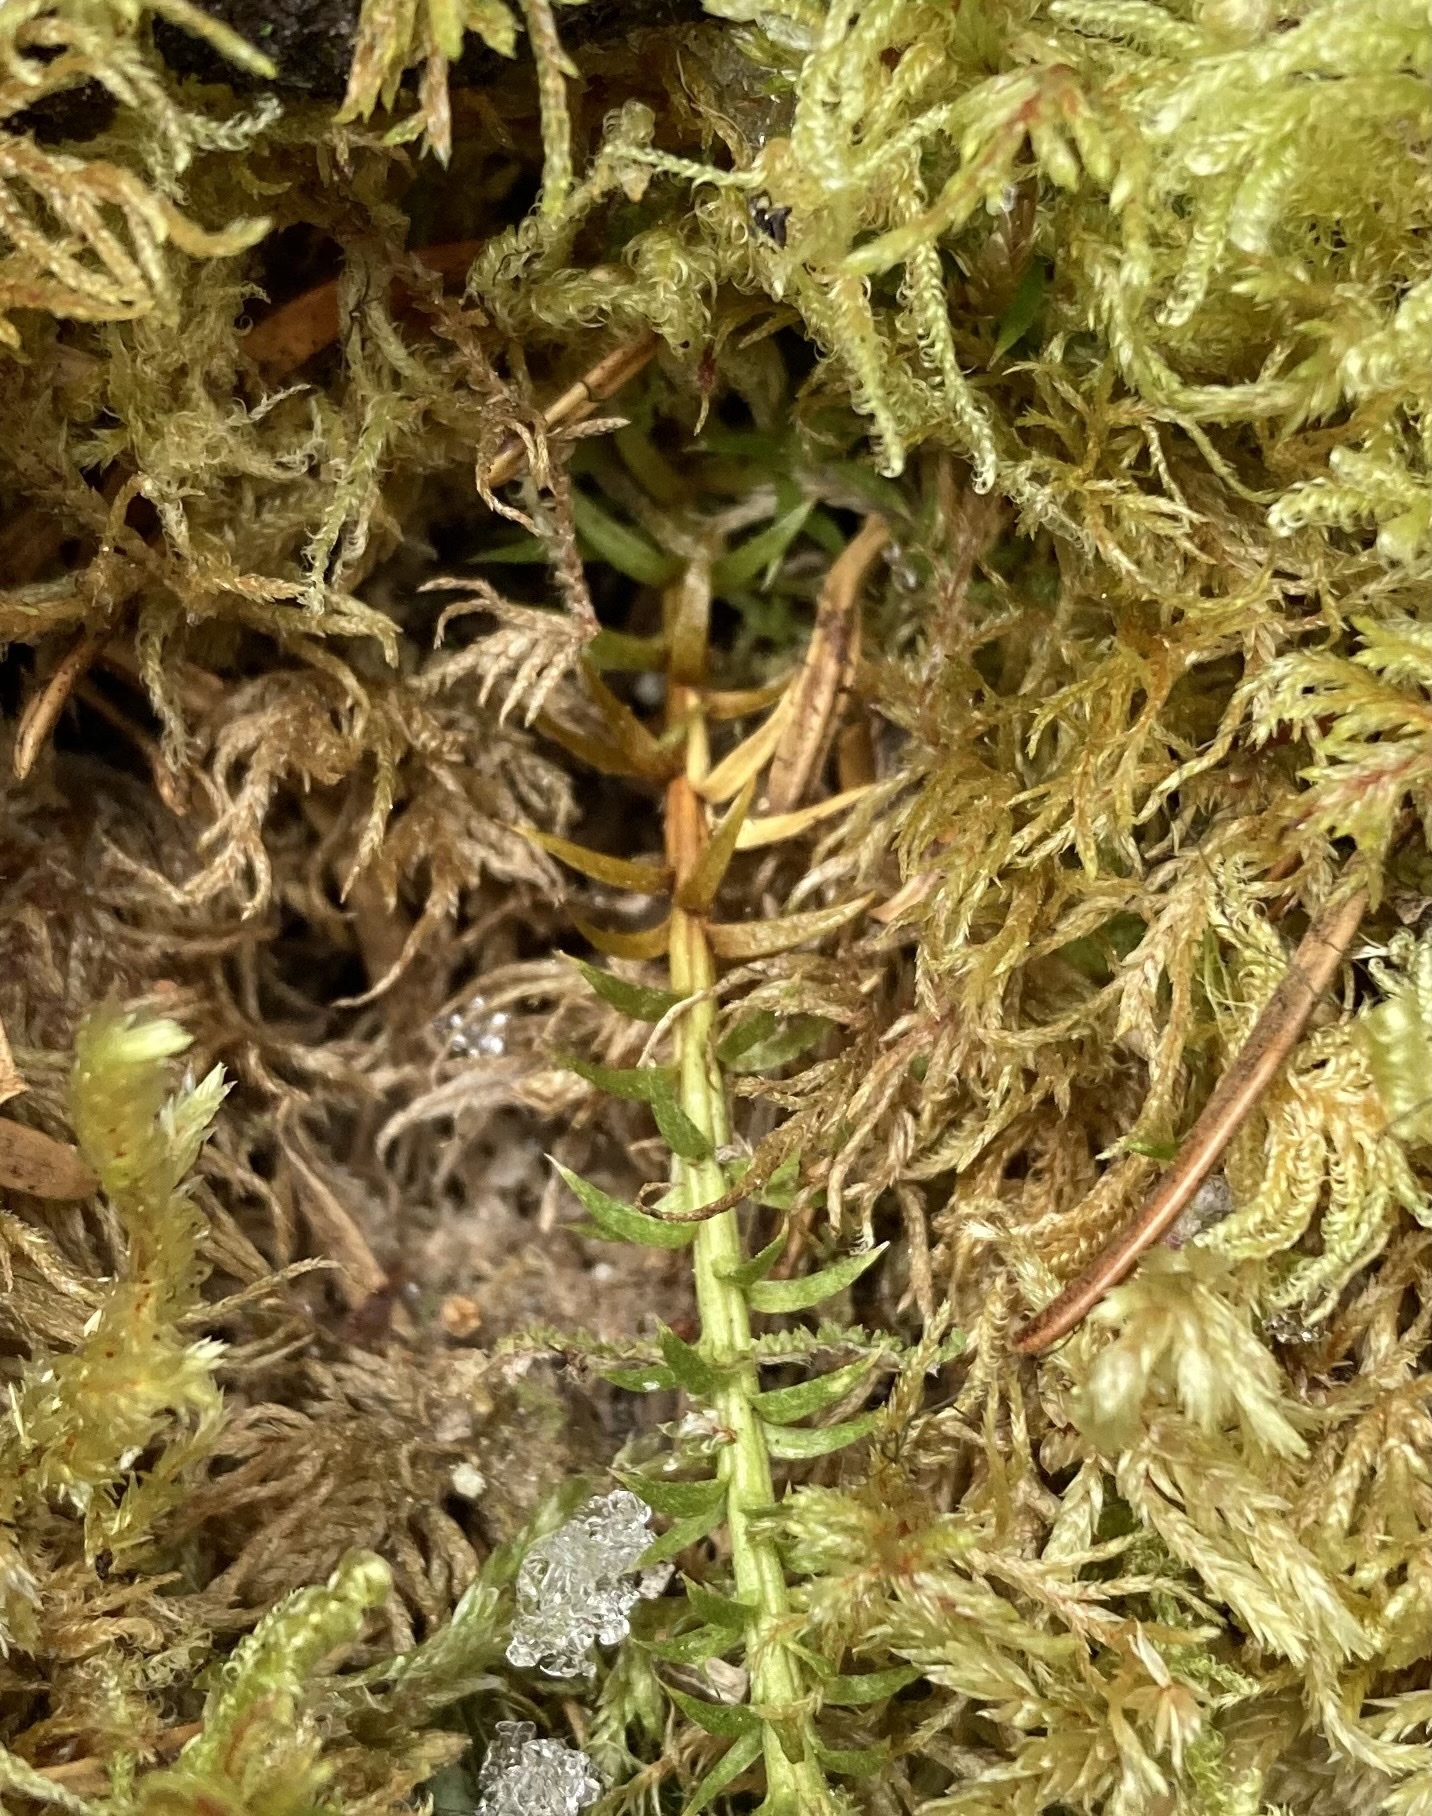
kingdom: Plantae
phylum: Tracheophyta
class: Lycopodiopsida
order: Lycopodiales
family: Lycopodiaceae
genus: Spinulum
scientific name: Spinulum annotinum
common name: Interrupted club-moss
